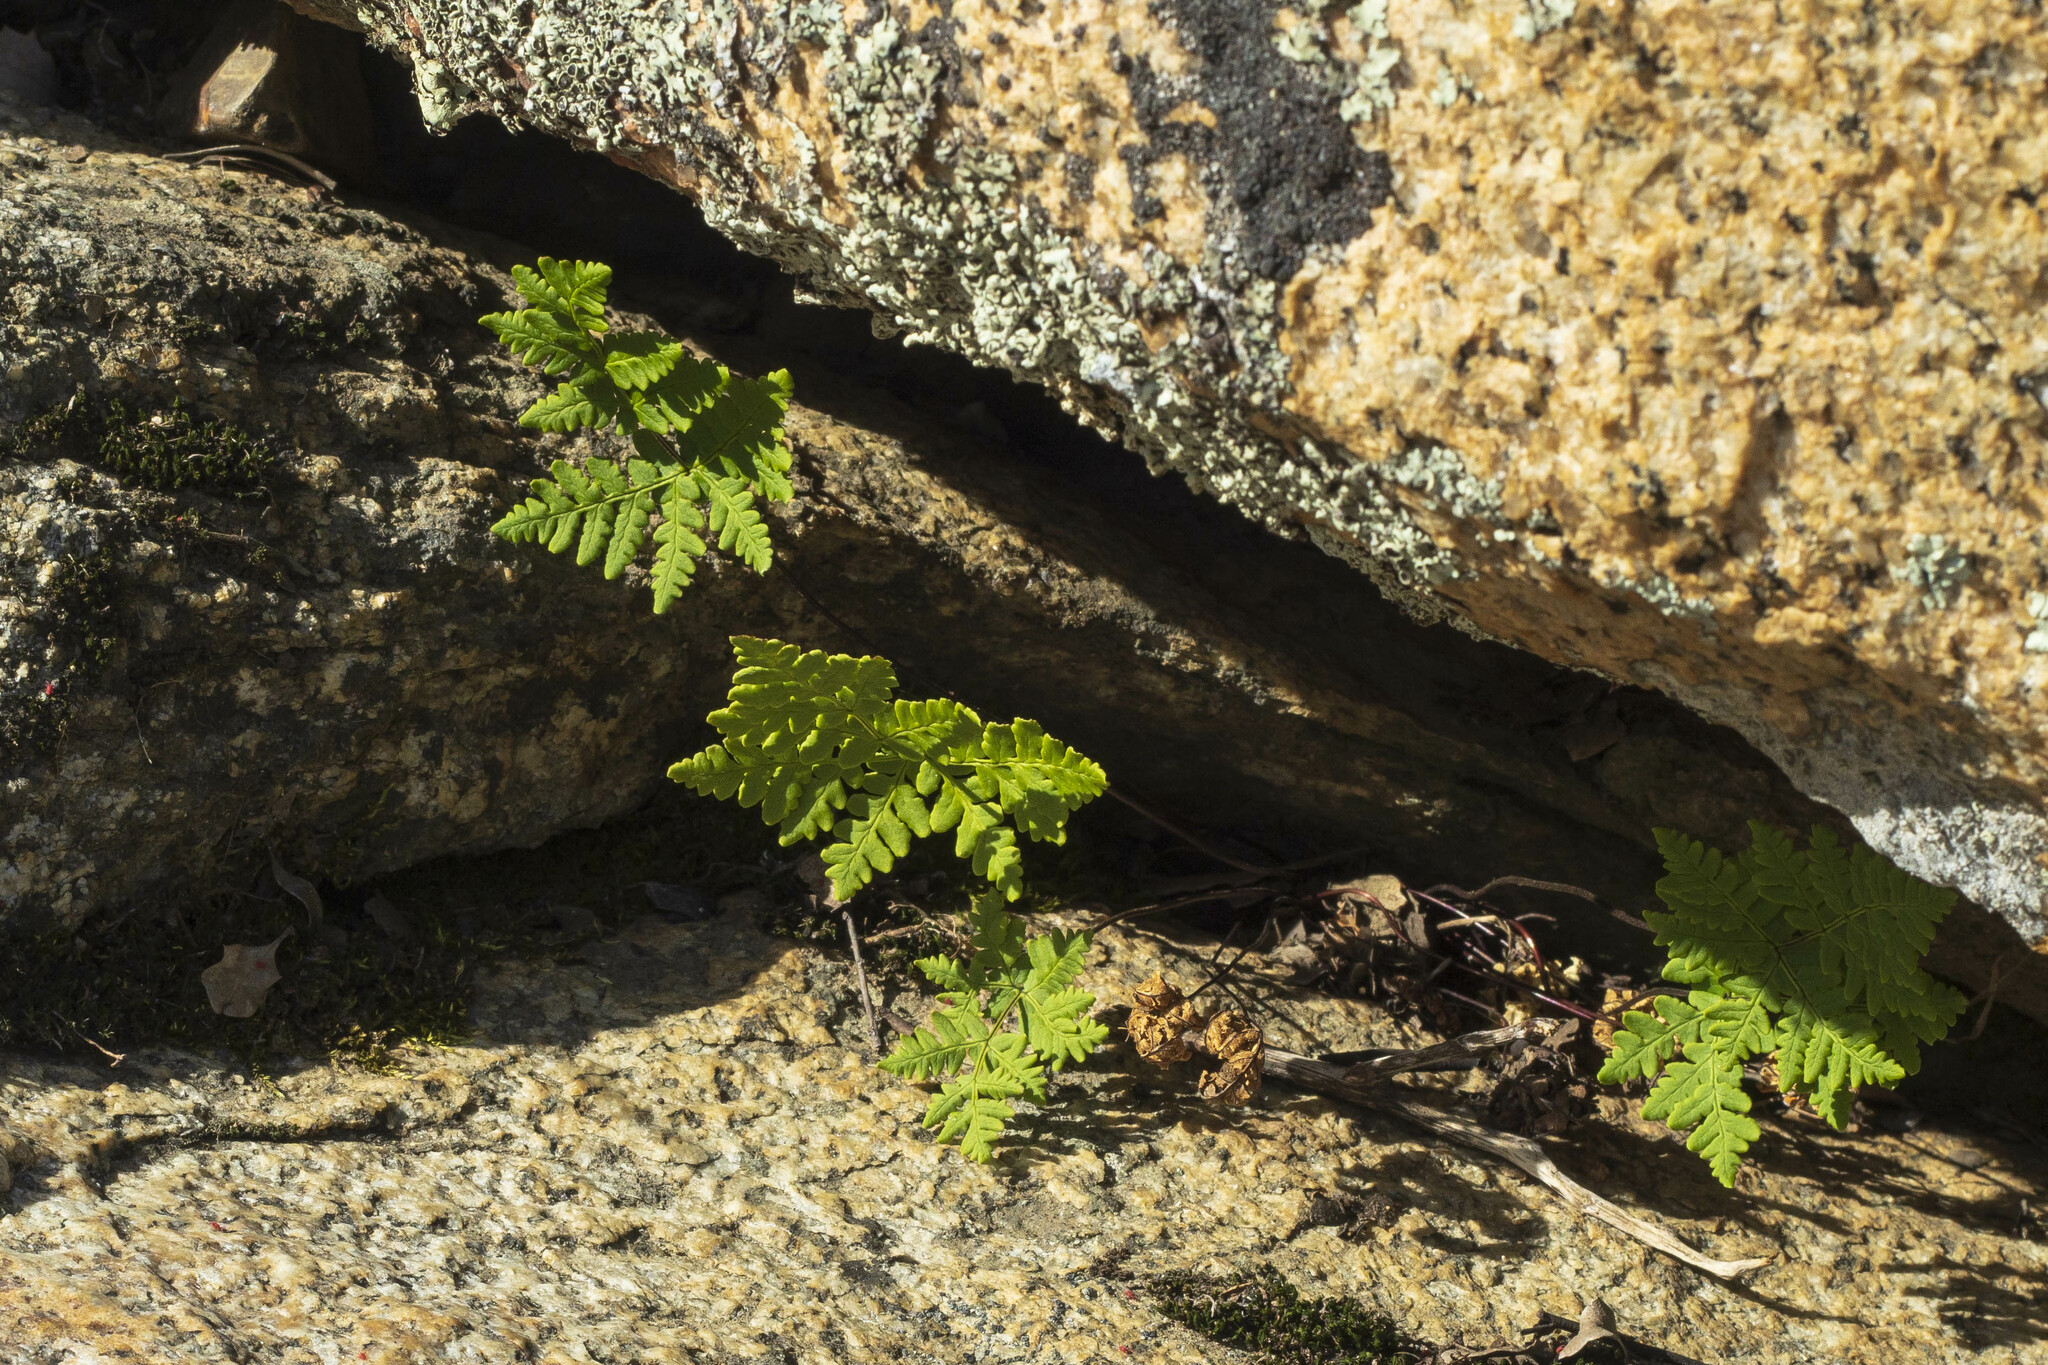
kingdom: Plantae
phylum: Tracheophyta
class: Polypodiopsida
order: Polypodiales
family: Pteridaceae
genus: Pentagramma
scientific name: Pentagramma triangularis
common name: Gold fern
